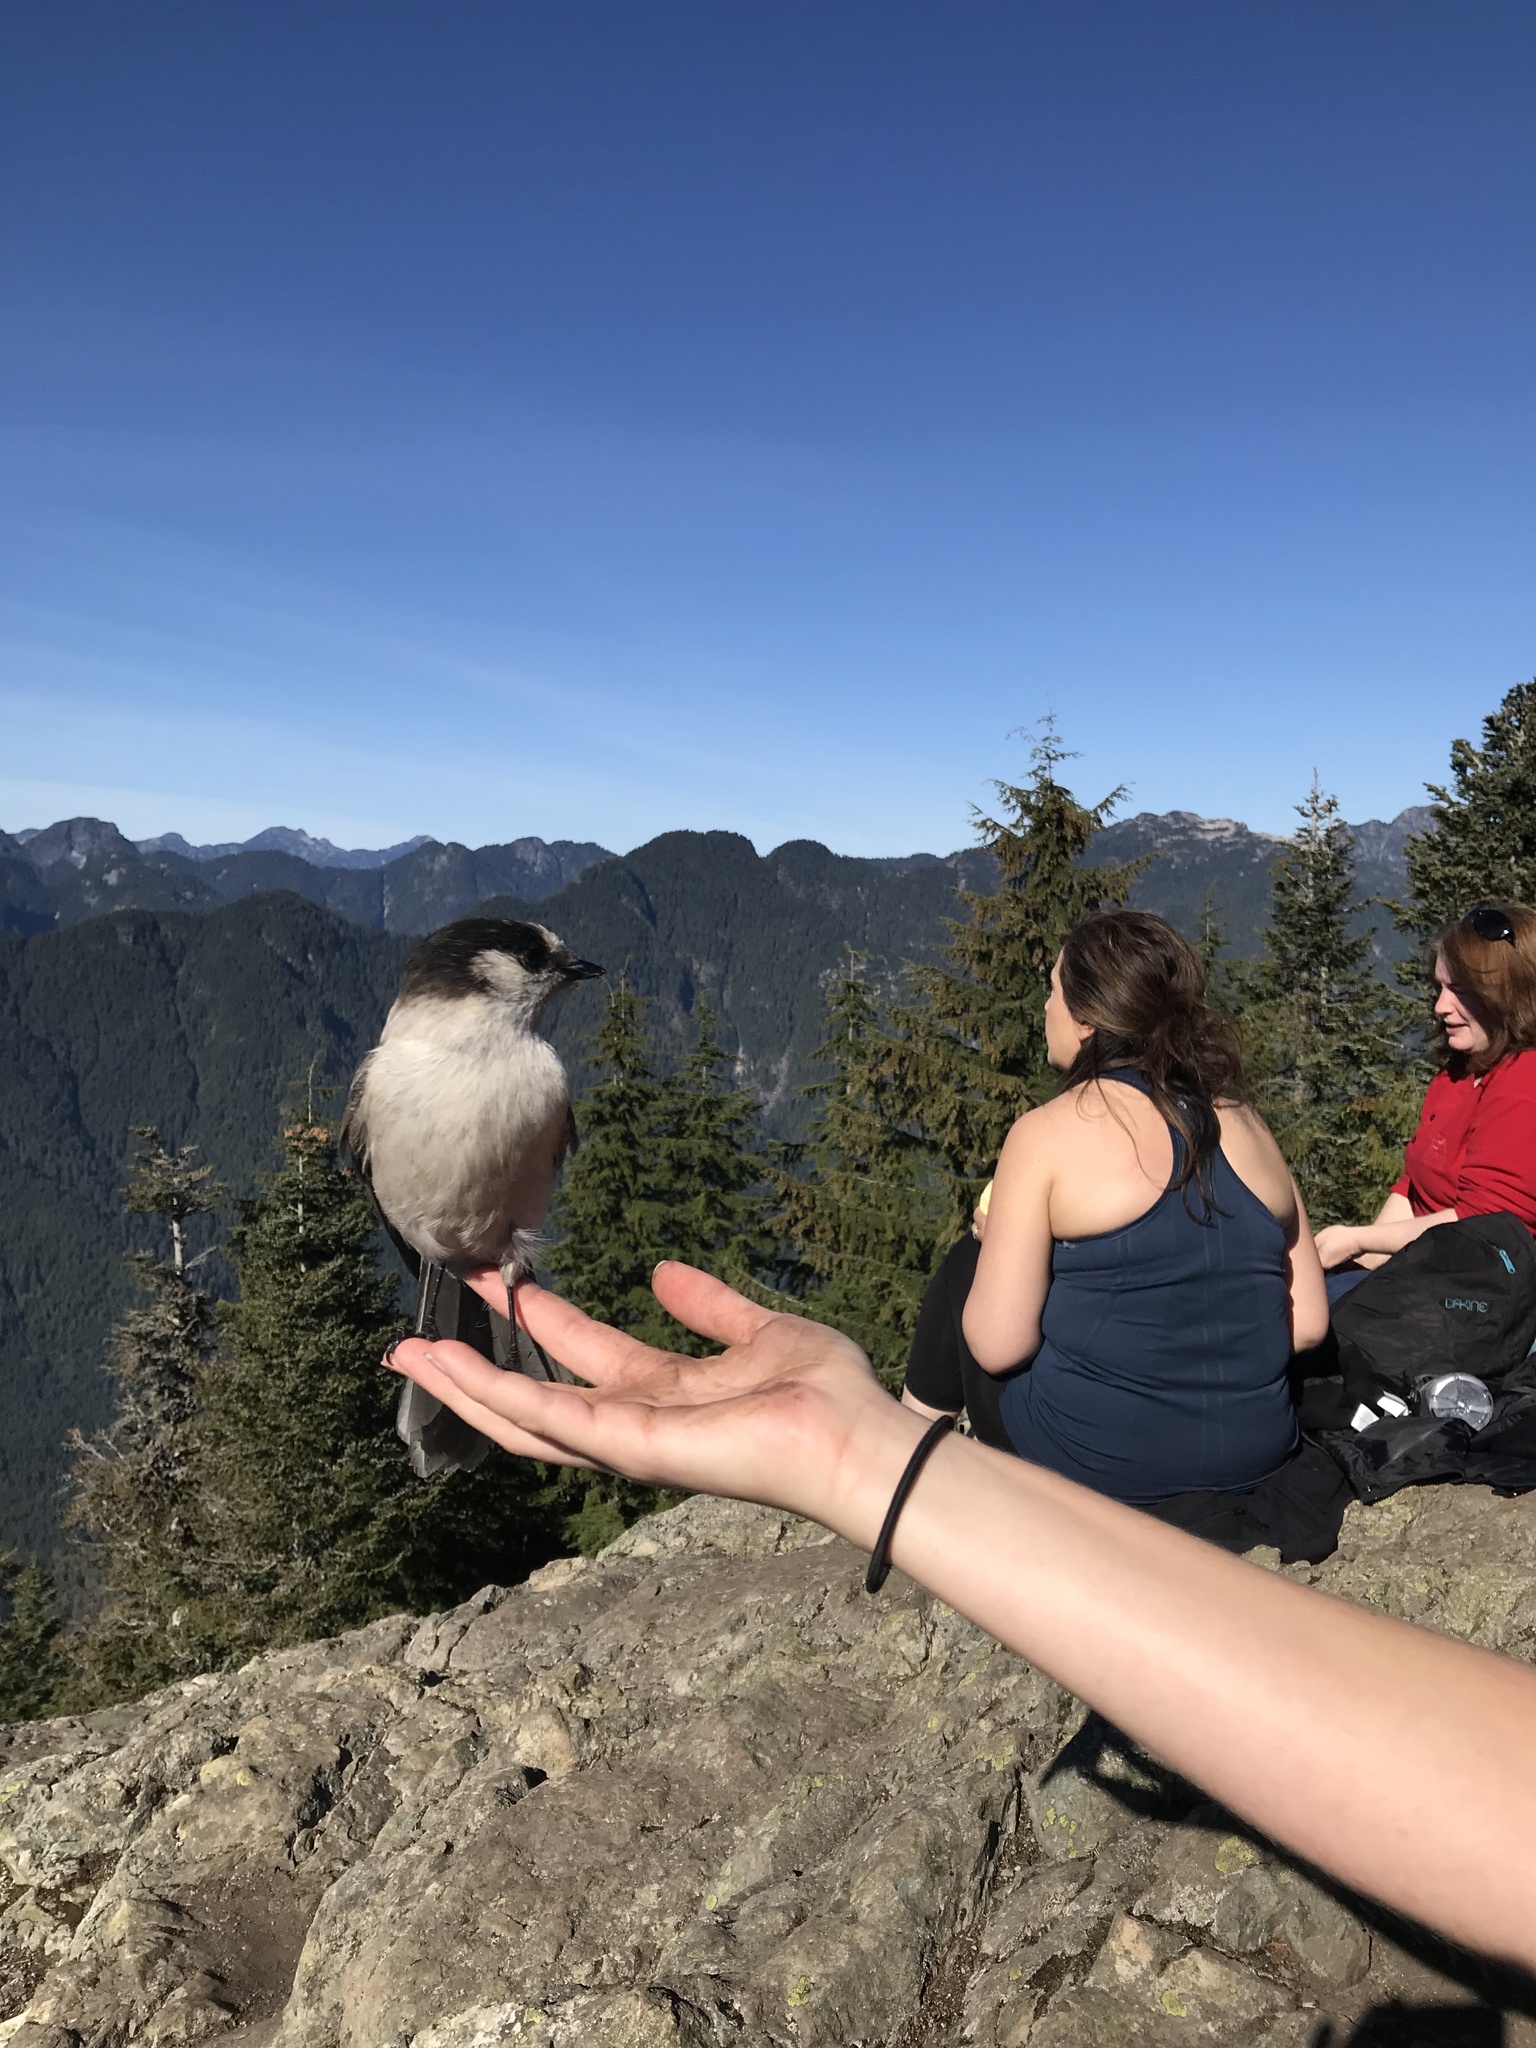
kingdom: Animalia
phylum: Chordata
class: Aves
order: Passeriformes
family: Corvidae
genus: Perisoreus
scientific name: Perisoreus canadensis
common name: Gray jay
